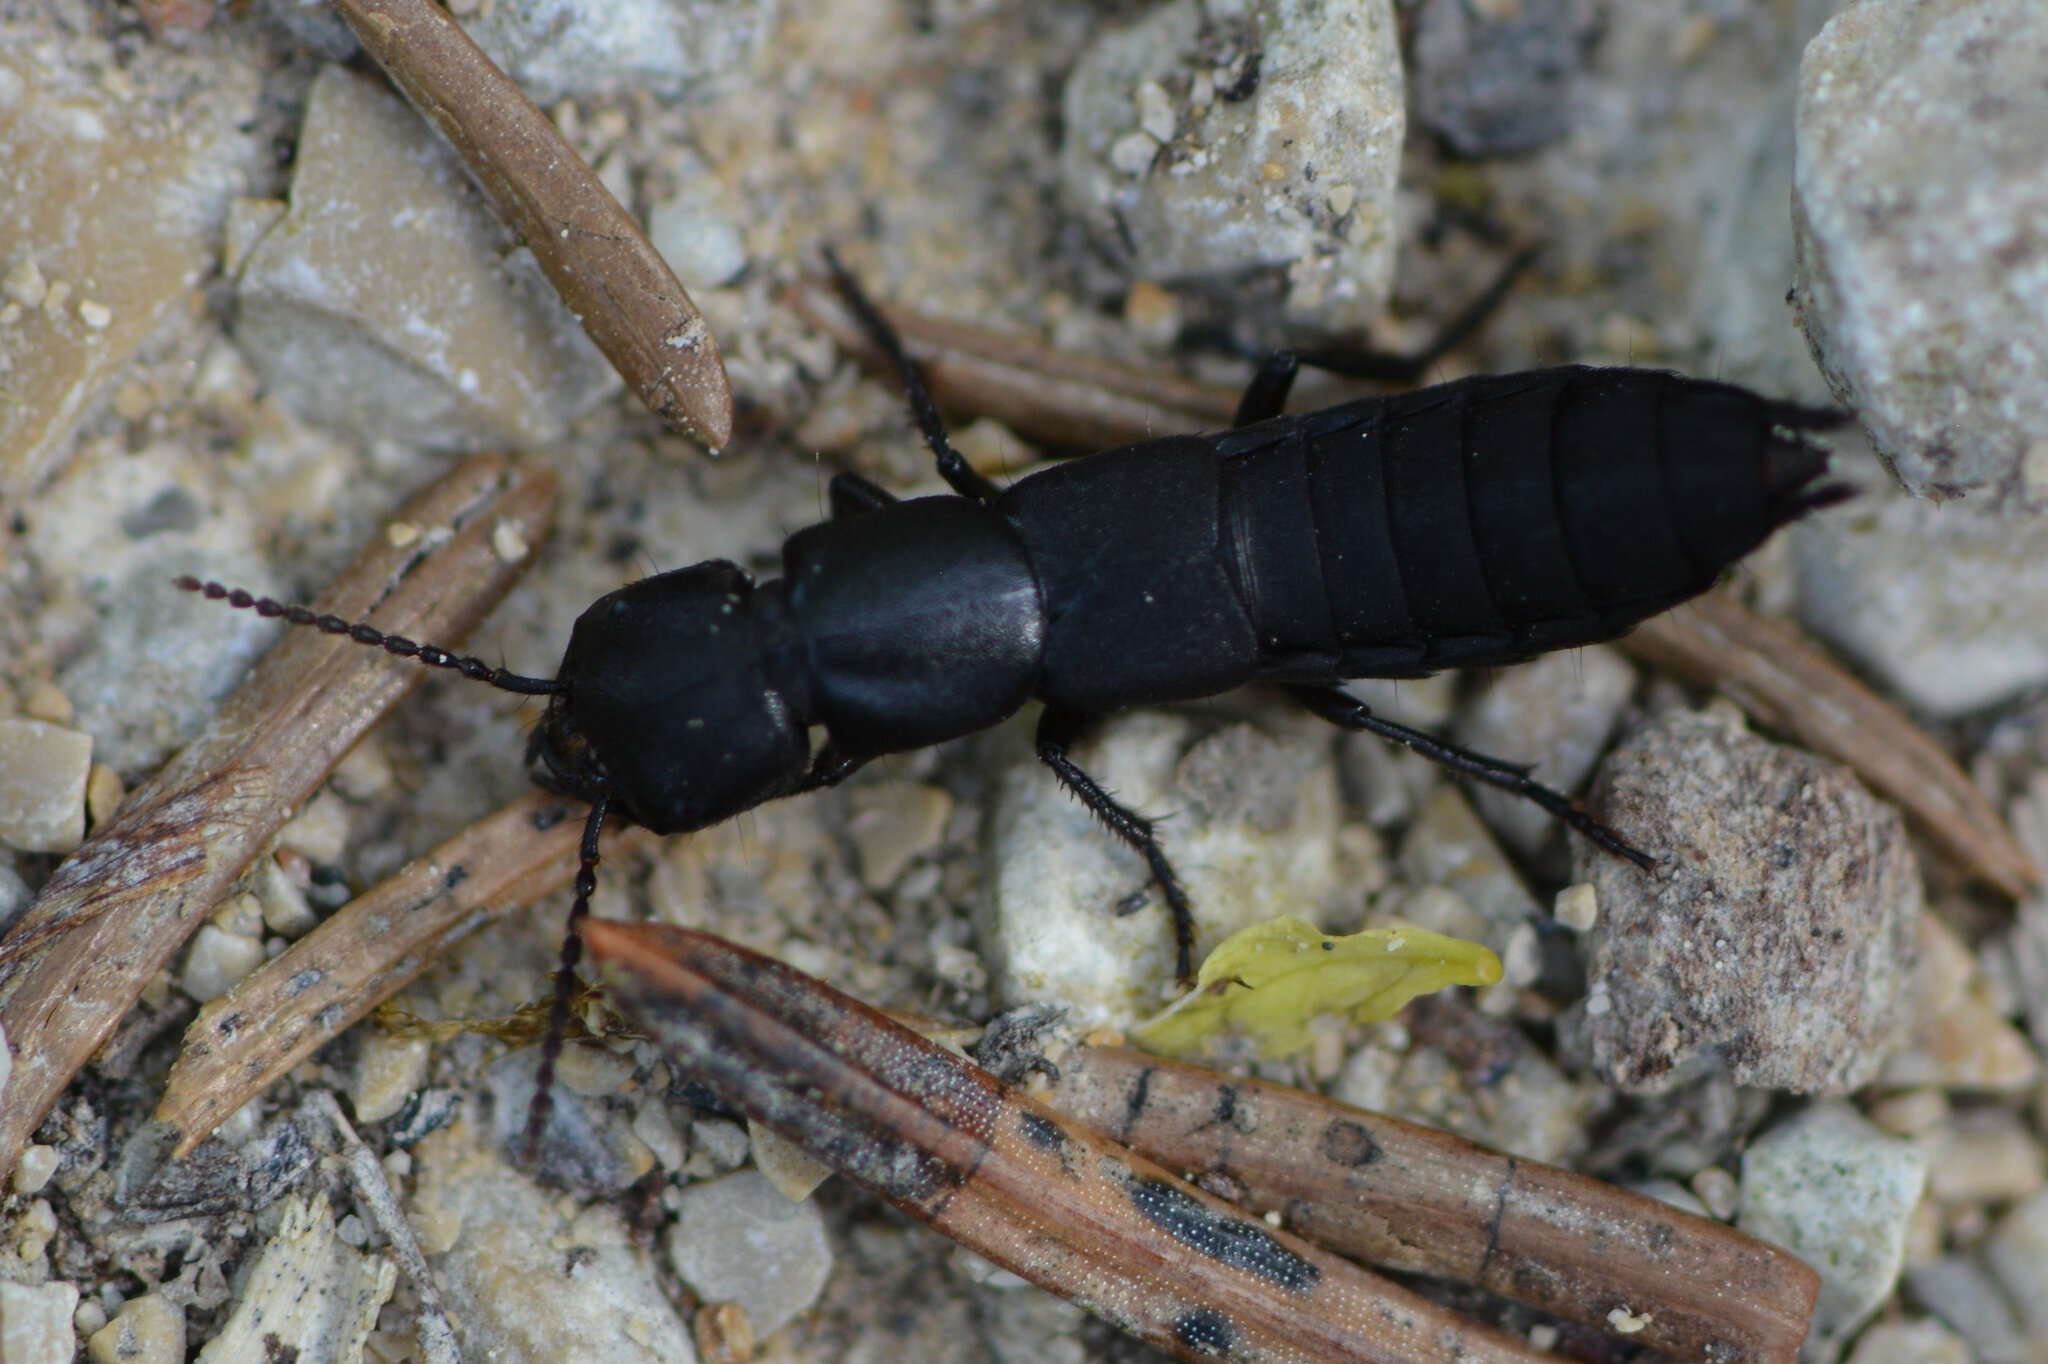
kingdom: Animalia
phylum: Arthropoda
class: Insecta
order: Coleoptera
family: Staphylinidae
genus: Ocypus
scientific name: Ocypus nitens
